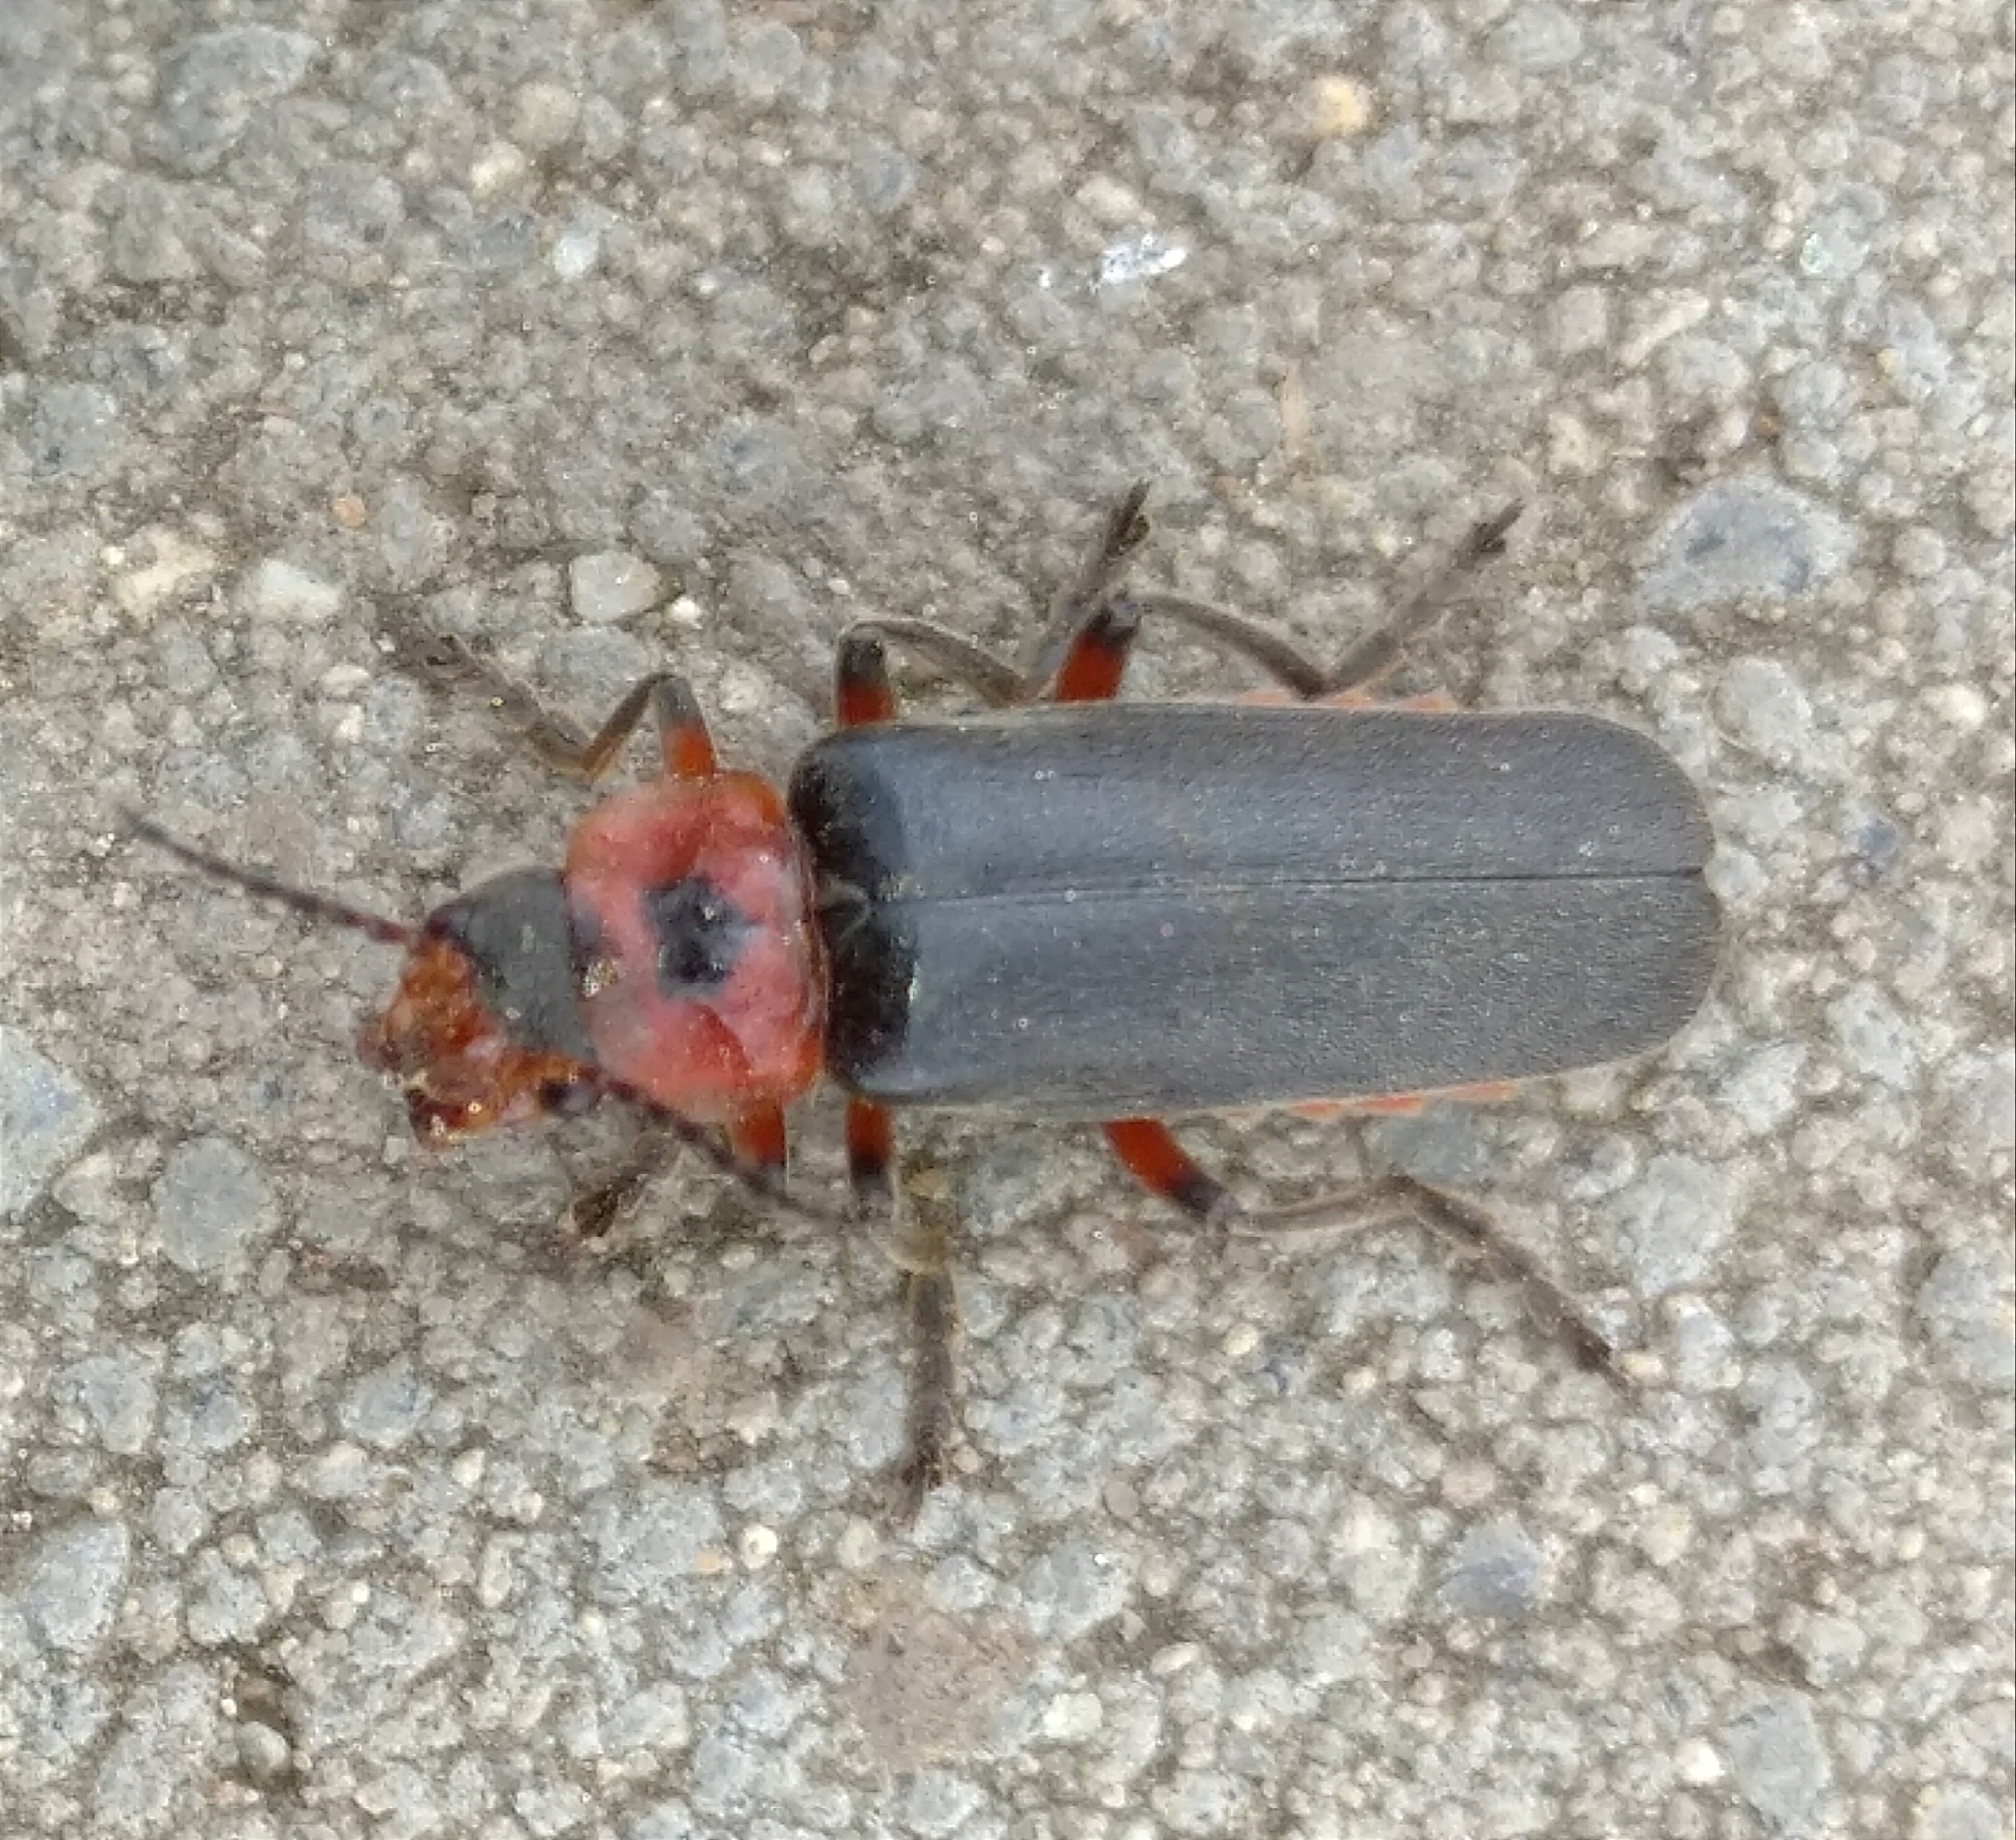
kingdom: Animalia
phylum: Arthropoda
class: Insecta
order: Coleoptera
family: Cantharidae
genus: Cantharis
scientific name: Cantharis rustica
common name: Soldier beetle
